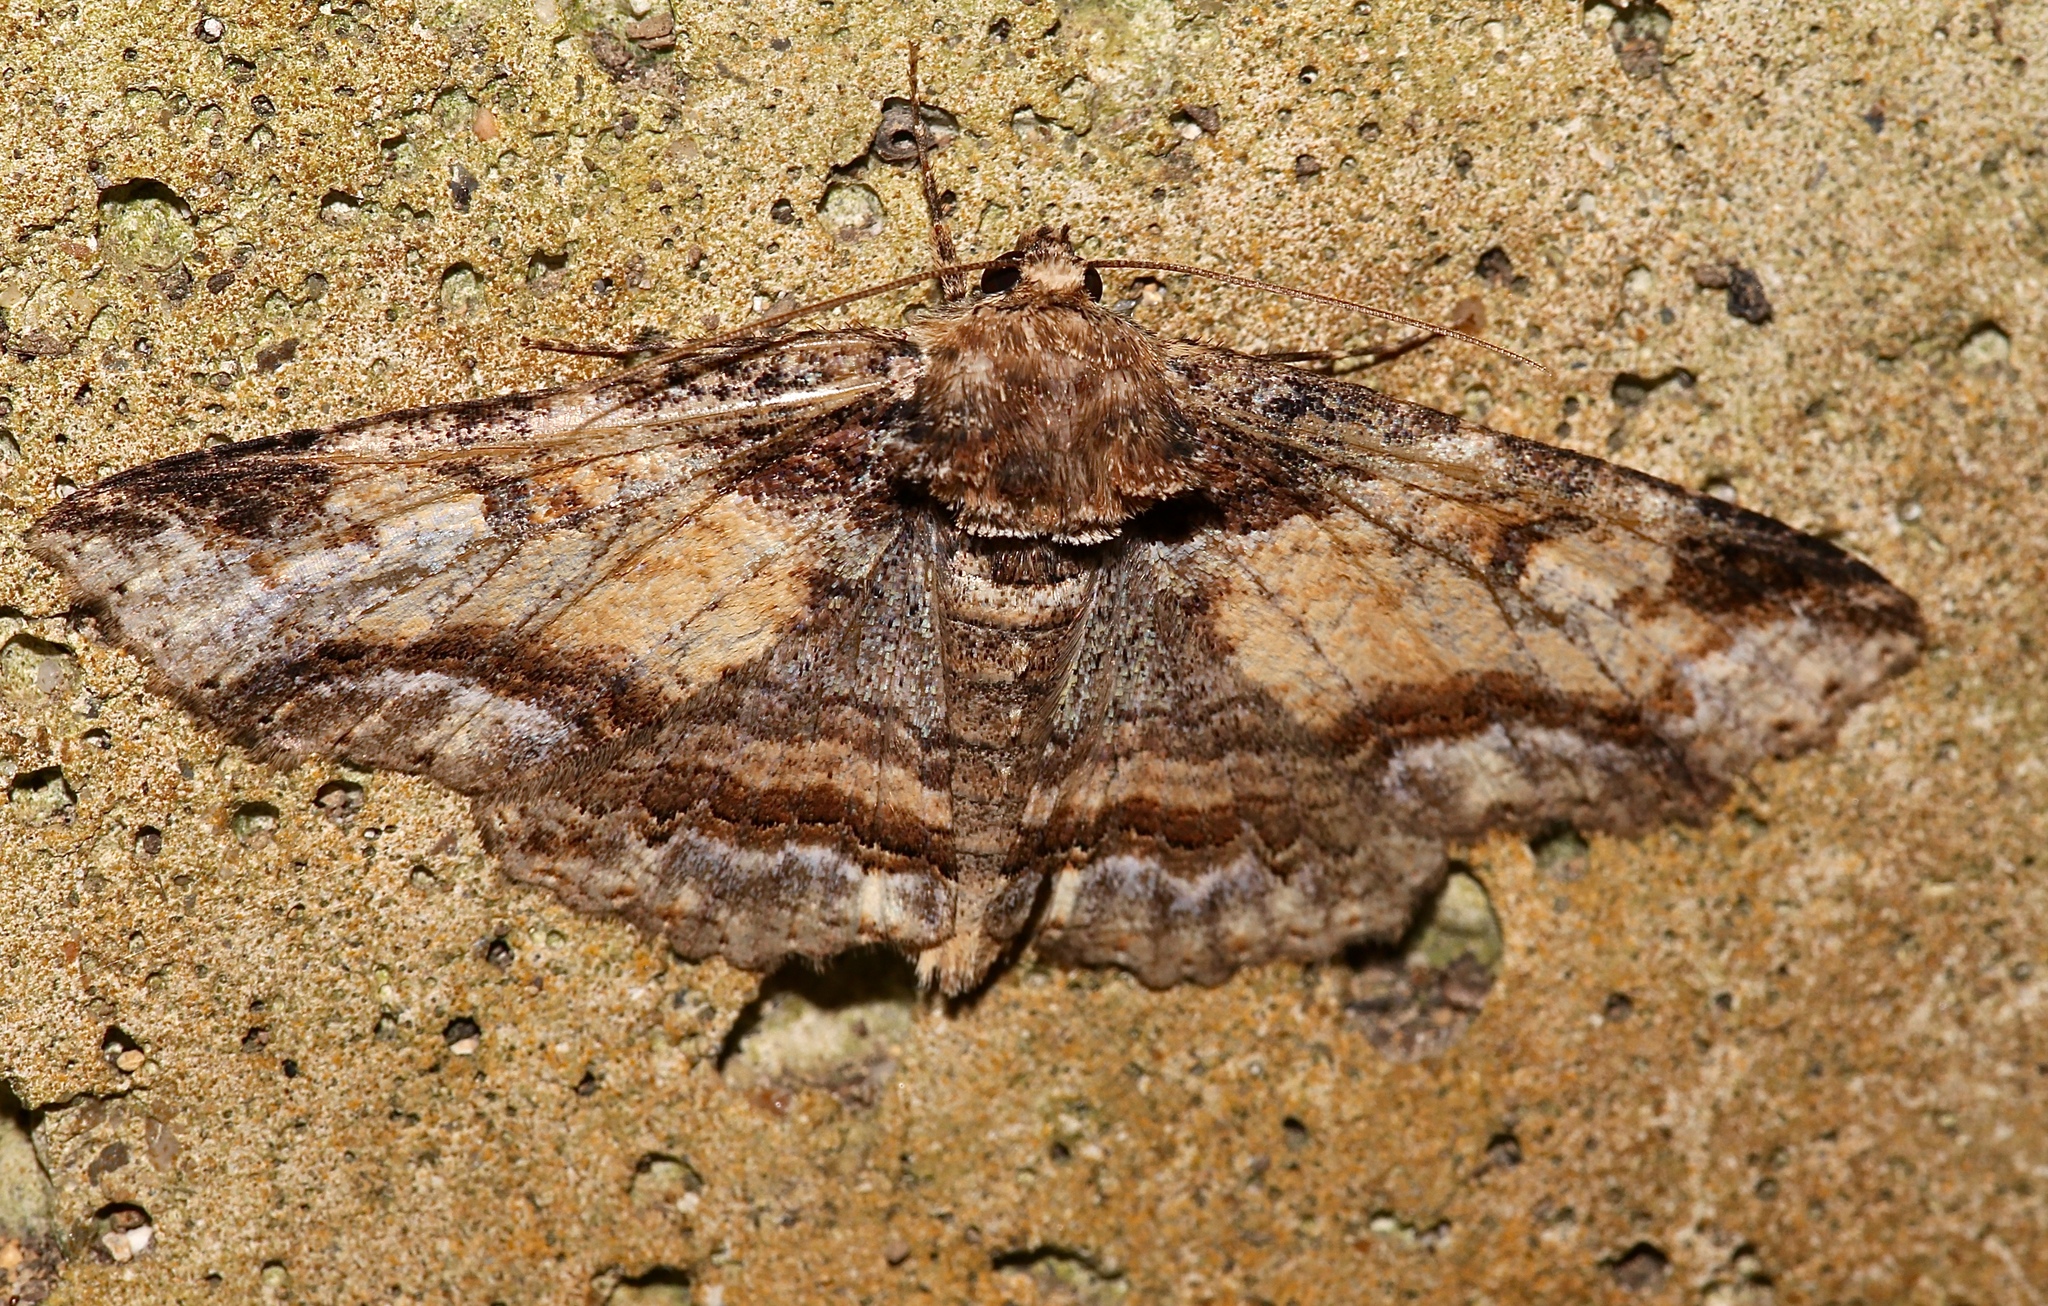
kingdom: Animalia
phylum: Arthropoda
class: Insecta
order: Lepidoptera
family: Erebidae
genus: Zale
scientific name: Zale minerea
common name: Colorful zale moth
